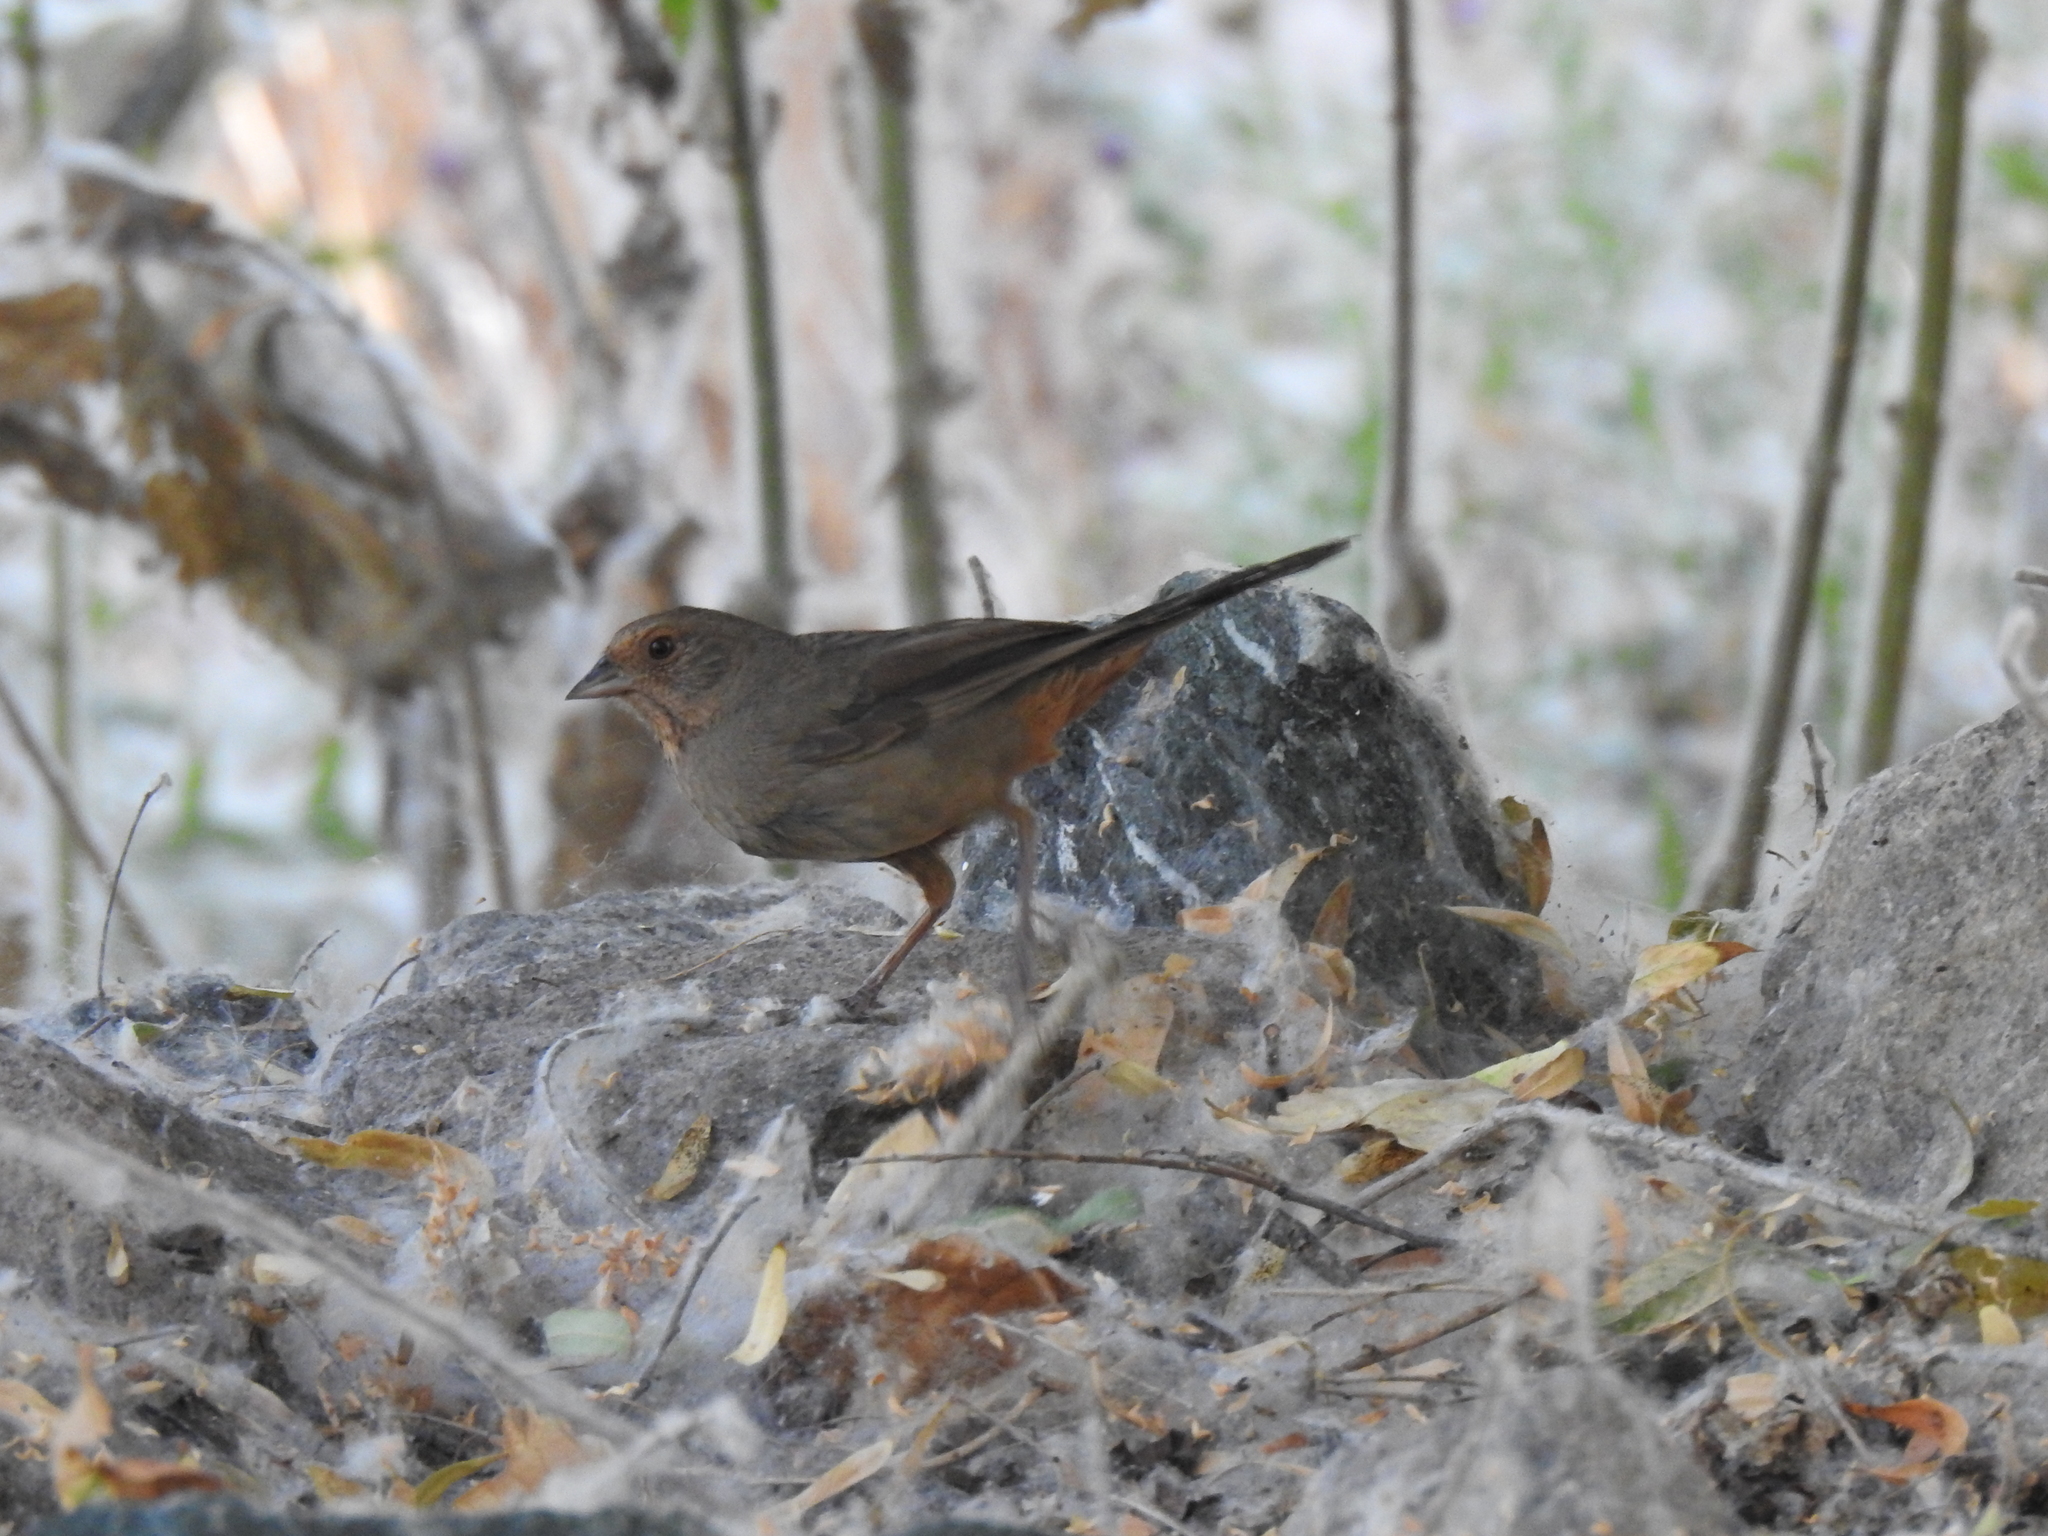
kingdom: Animalia
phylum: Chordata
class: Aves
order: Passeriformes
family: Passerellidae
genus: Melozone
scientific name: Melozone crissalis
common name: California towhee
